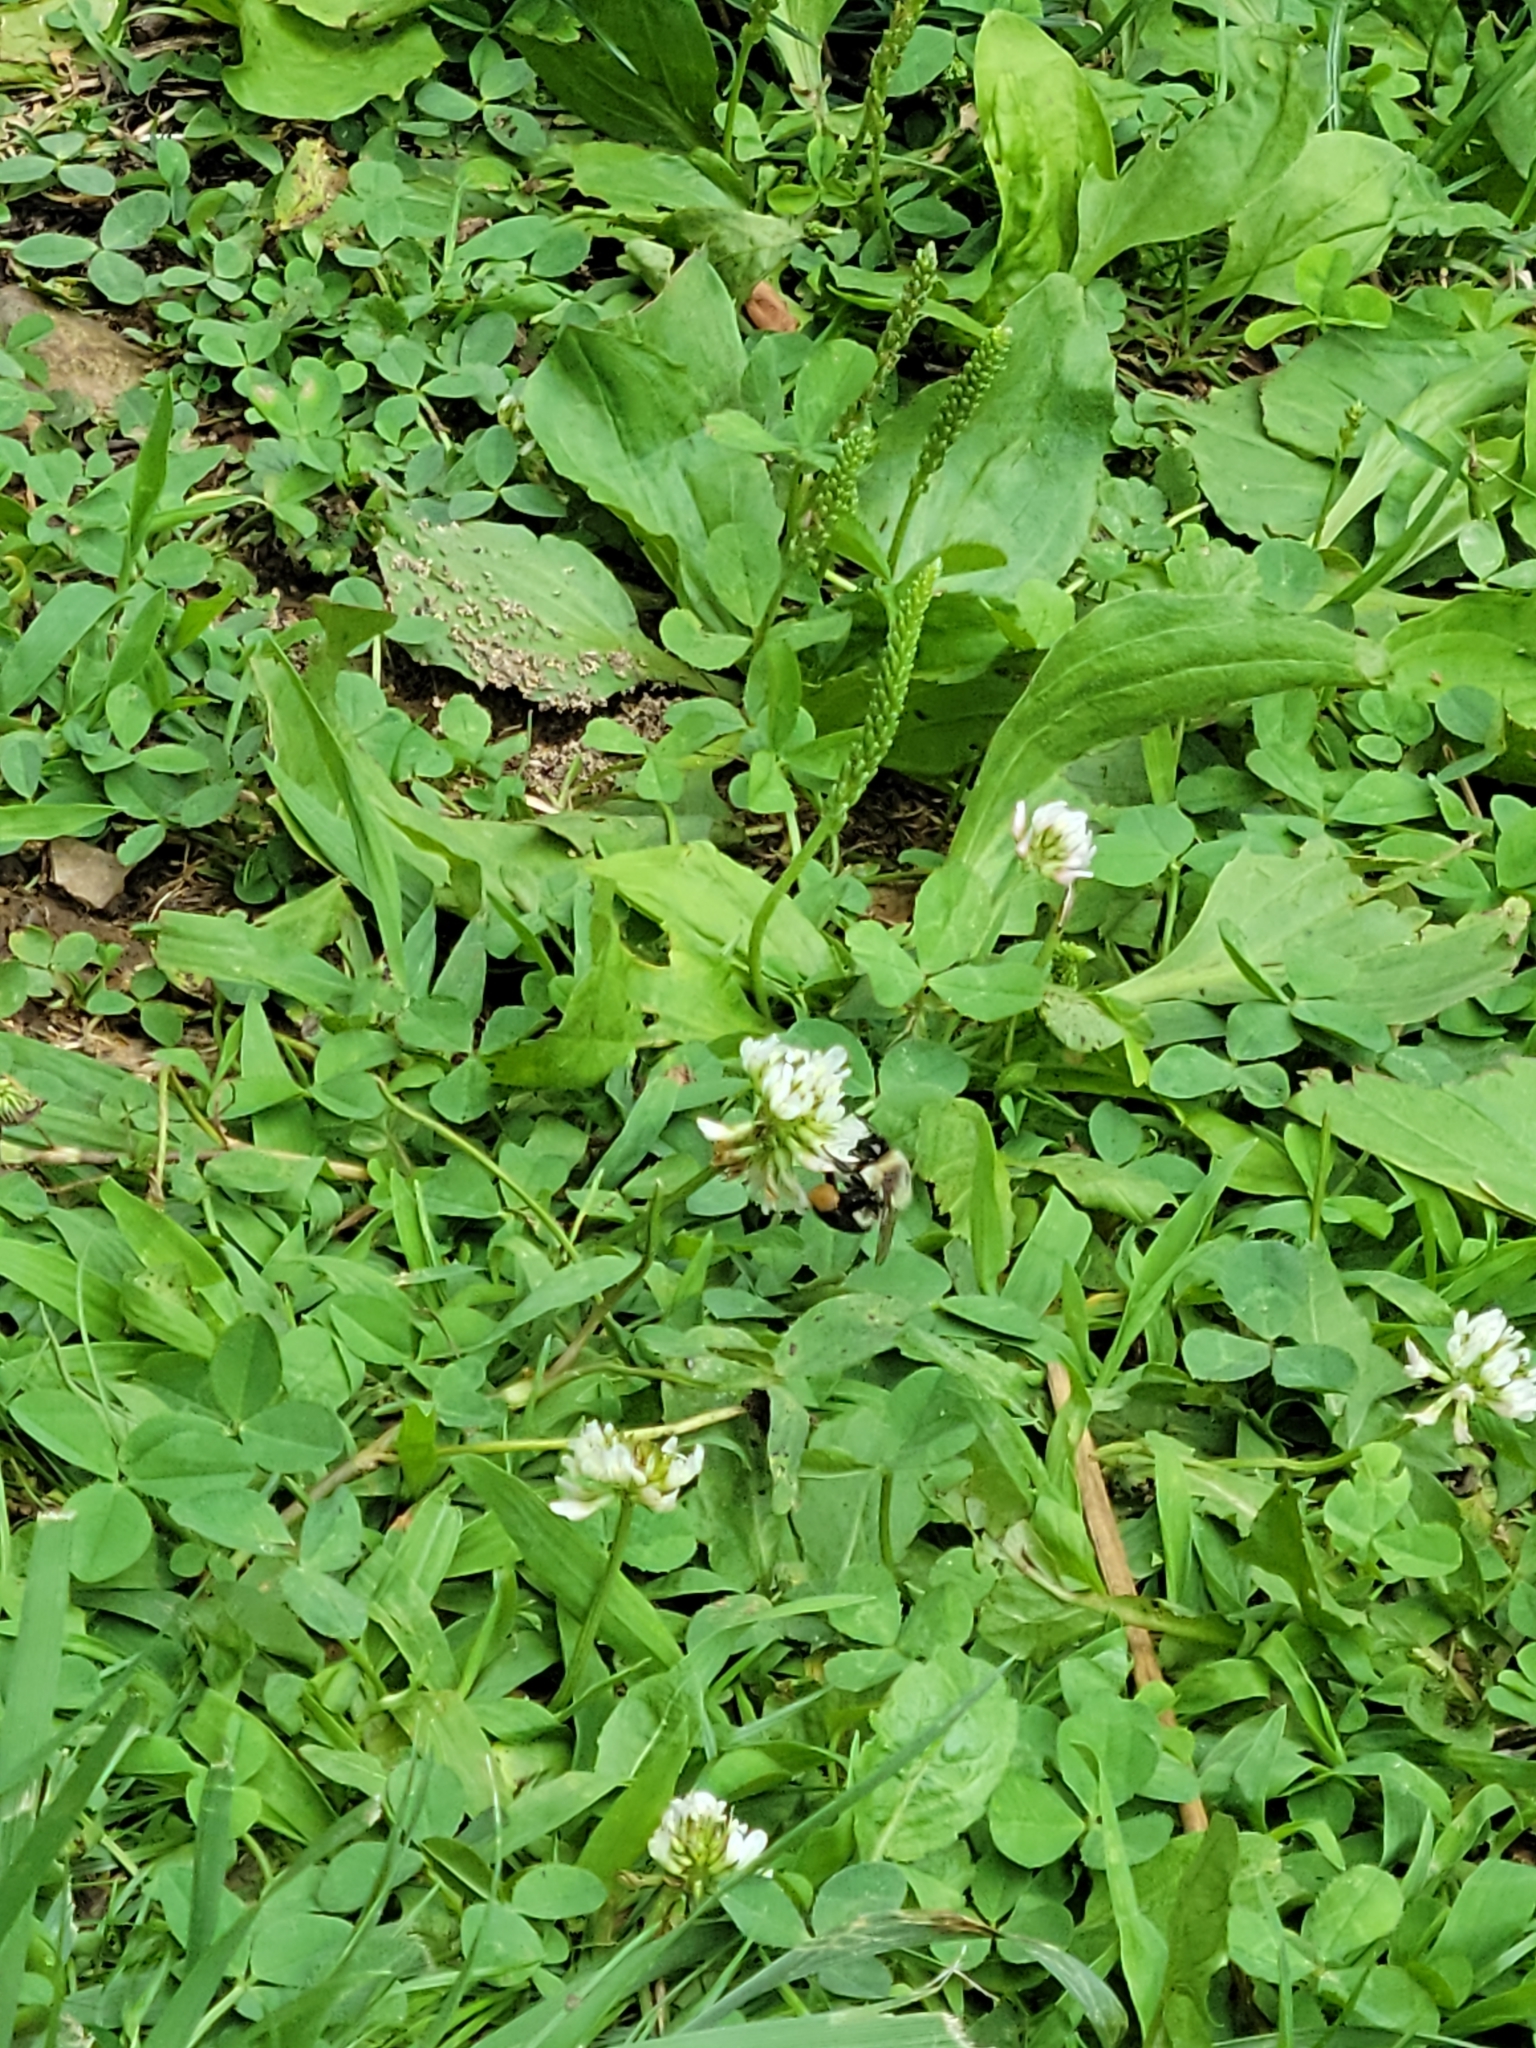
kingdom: Animalia
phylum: Arthropoda
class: Insecta
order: Hymenoptera
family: Apidae
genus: Bombus
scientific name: Bombus impatiens
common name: Common eastern bumble bee
